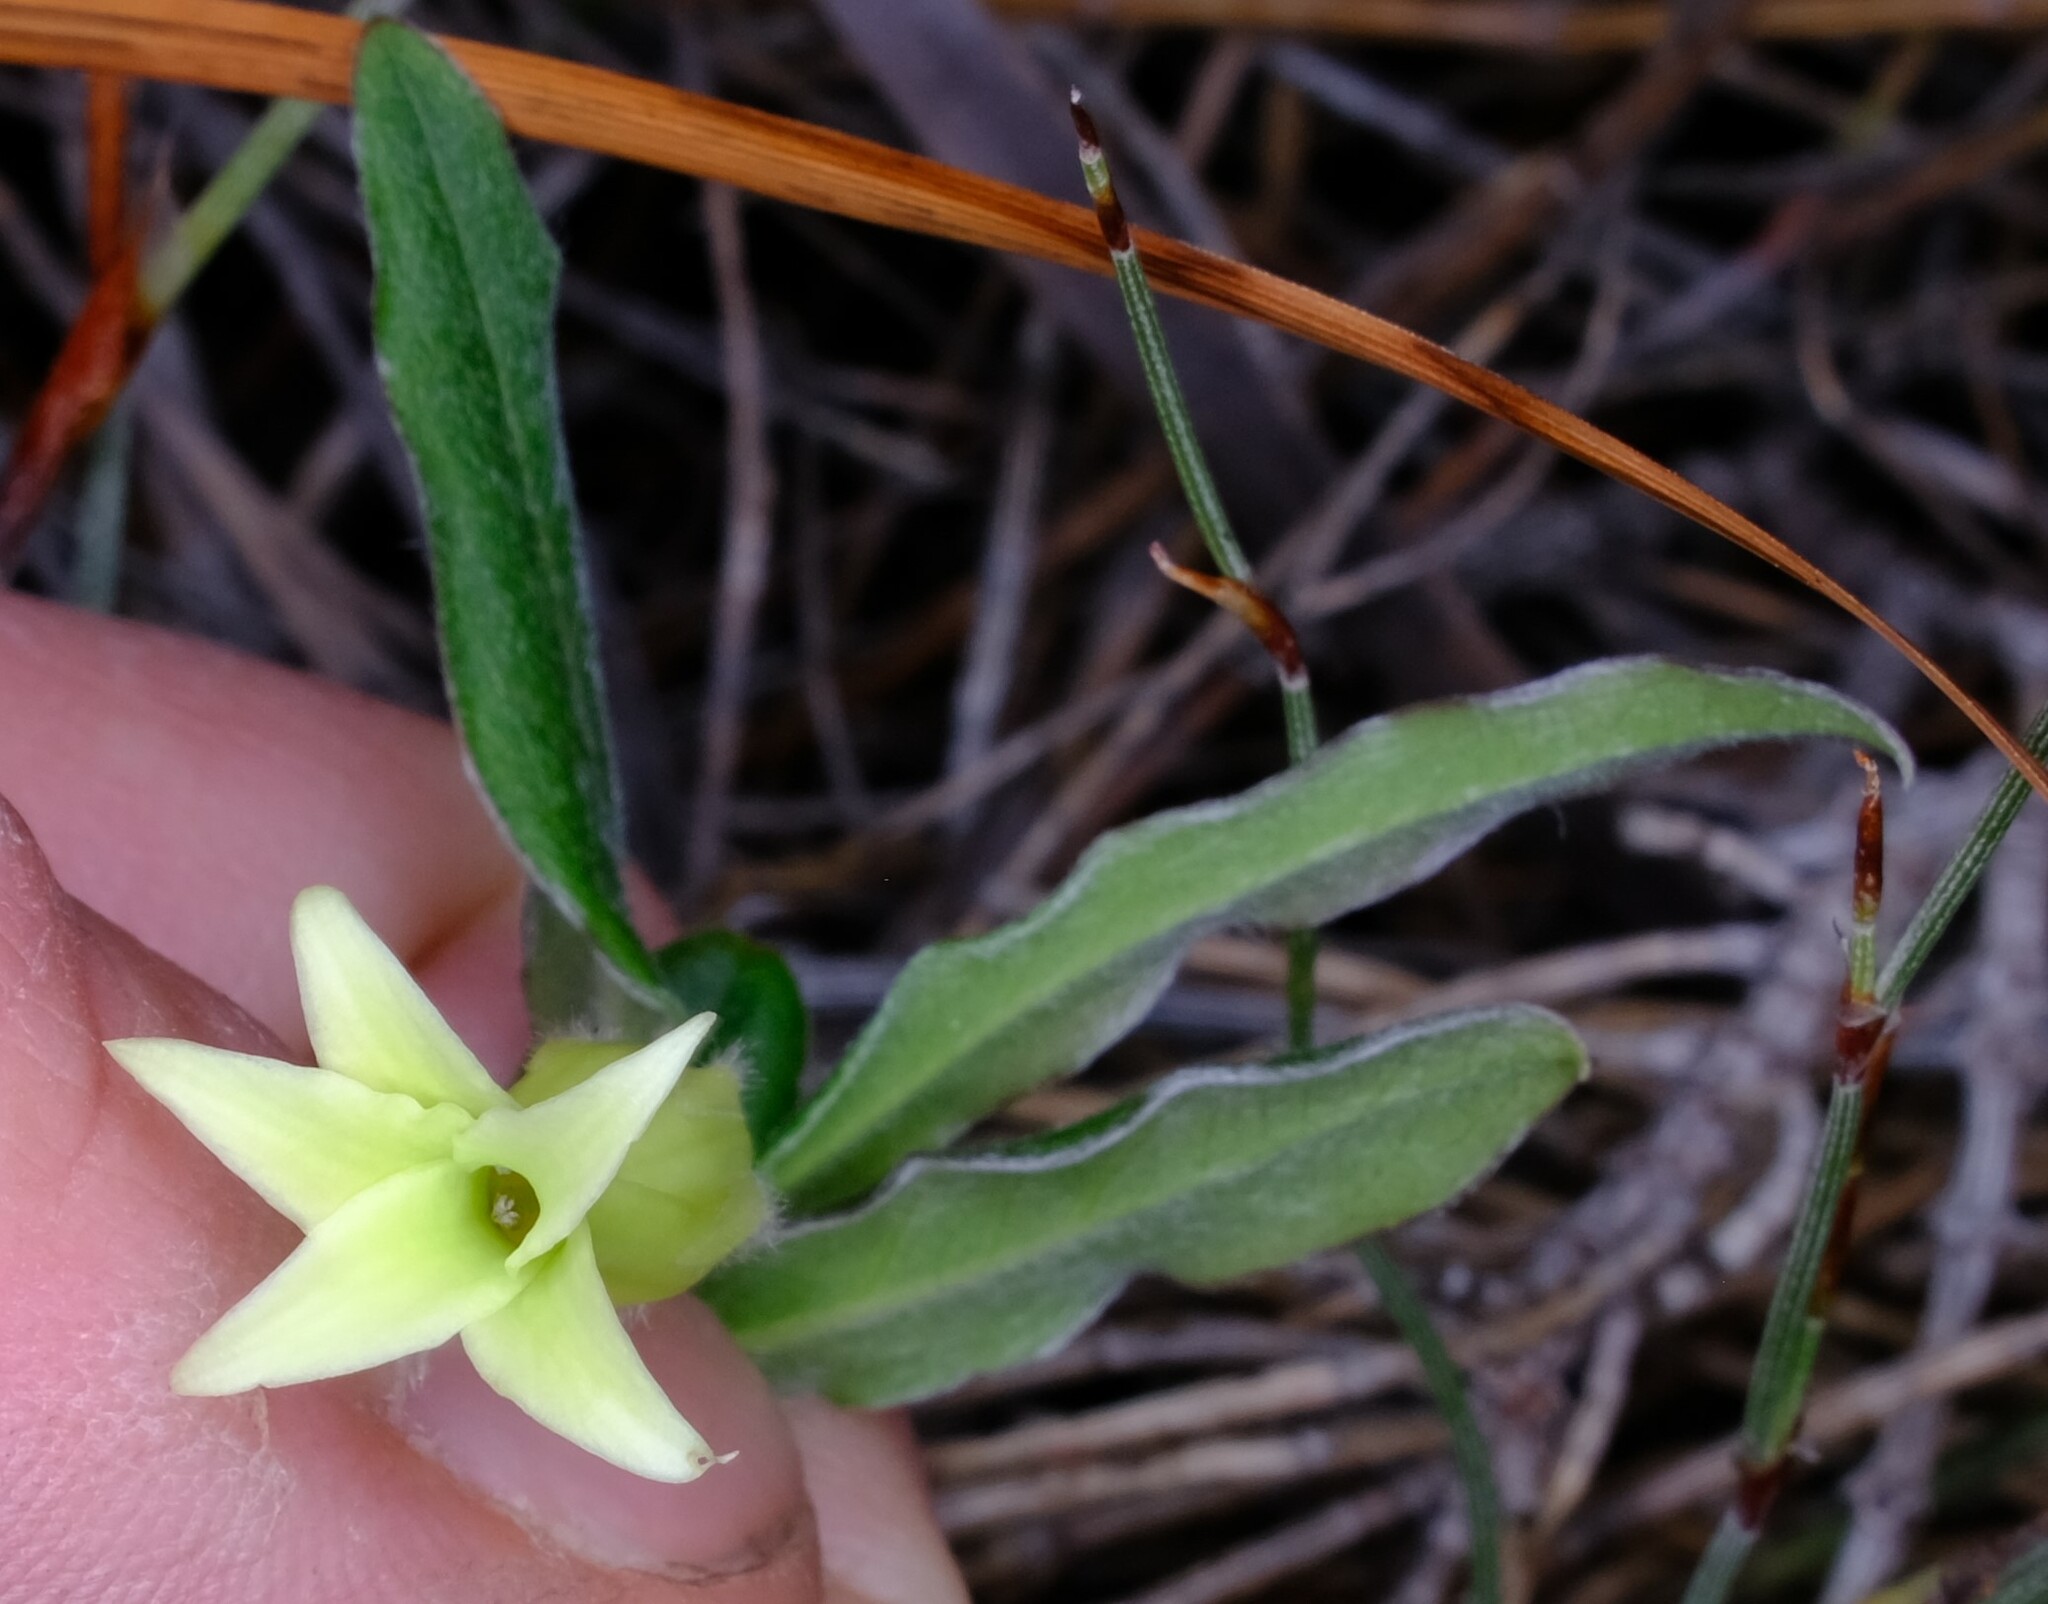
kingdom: Plantae
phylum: Tracheophyta
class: Magnoliopsida
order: Apiales
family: Pittosporaceae
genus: Billardiera
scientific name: Billardiera mutabilis
